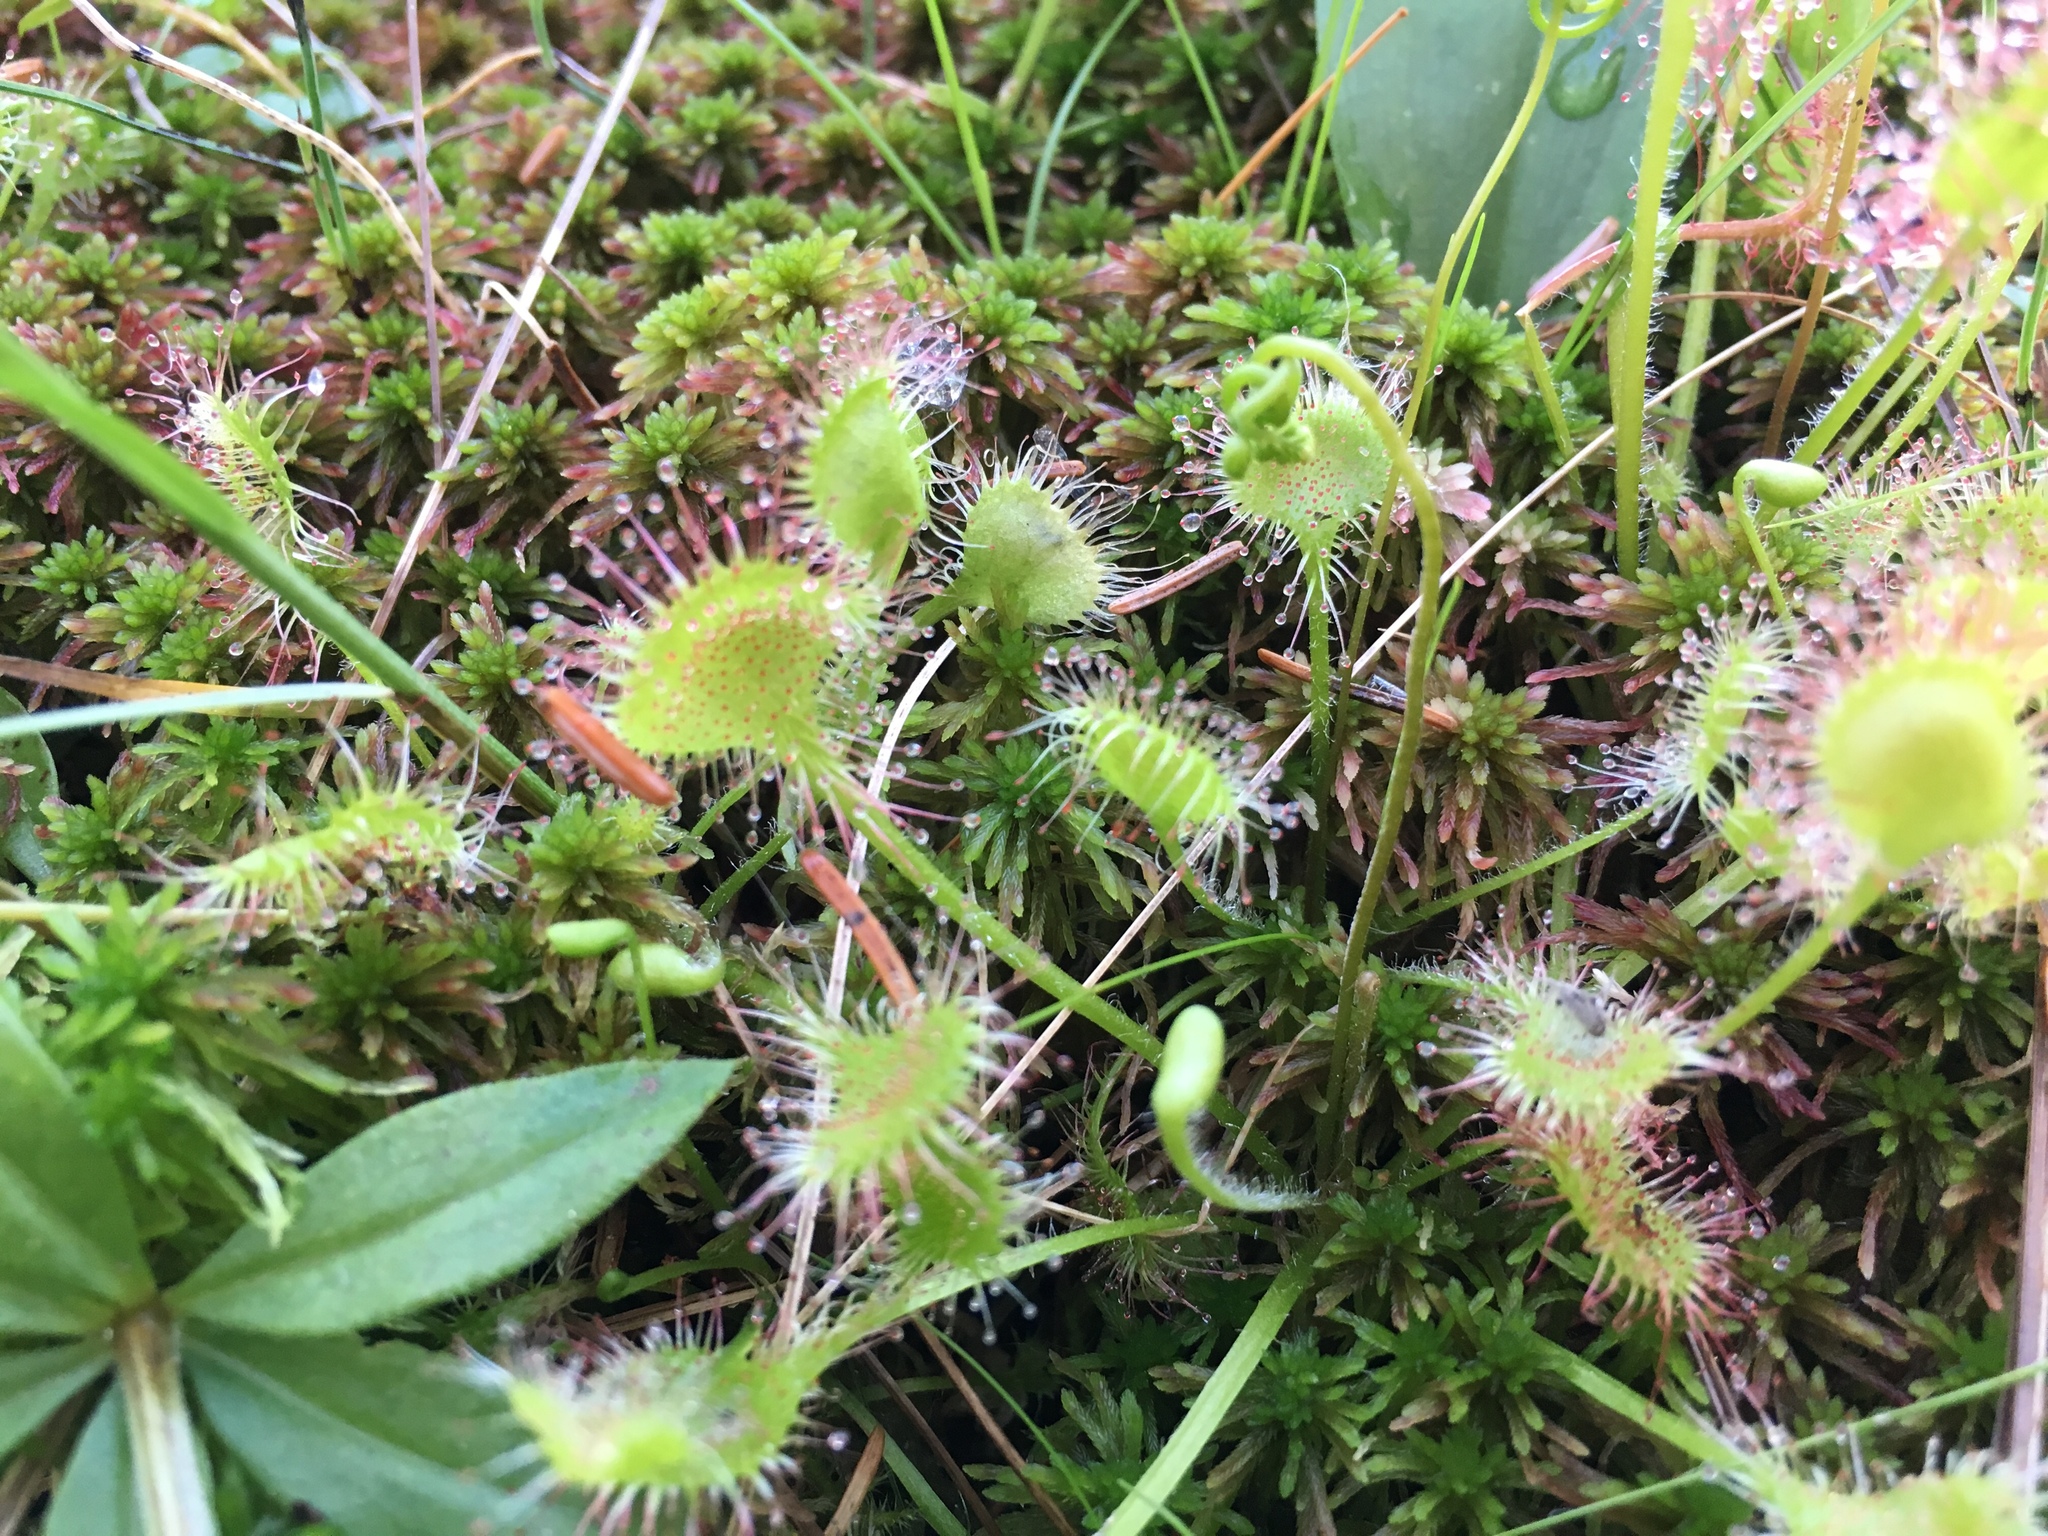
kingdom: Plantae
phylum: Tracheophyta
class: Magnoliopsida
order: Caryophyllales
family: Droseraceae
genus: Drosera
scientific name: Drosera rotundifolia
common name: Round-leaved sundew
